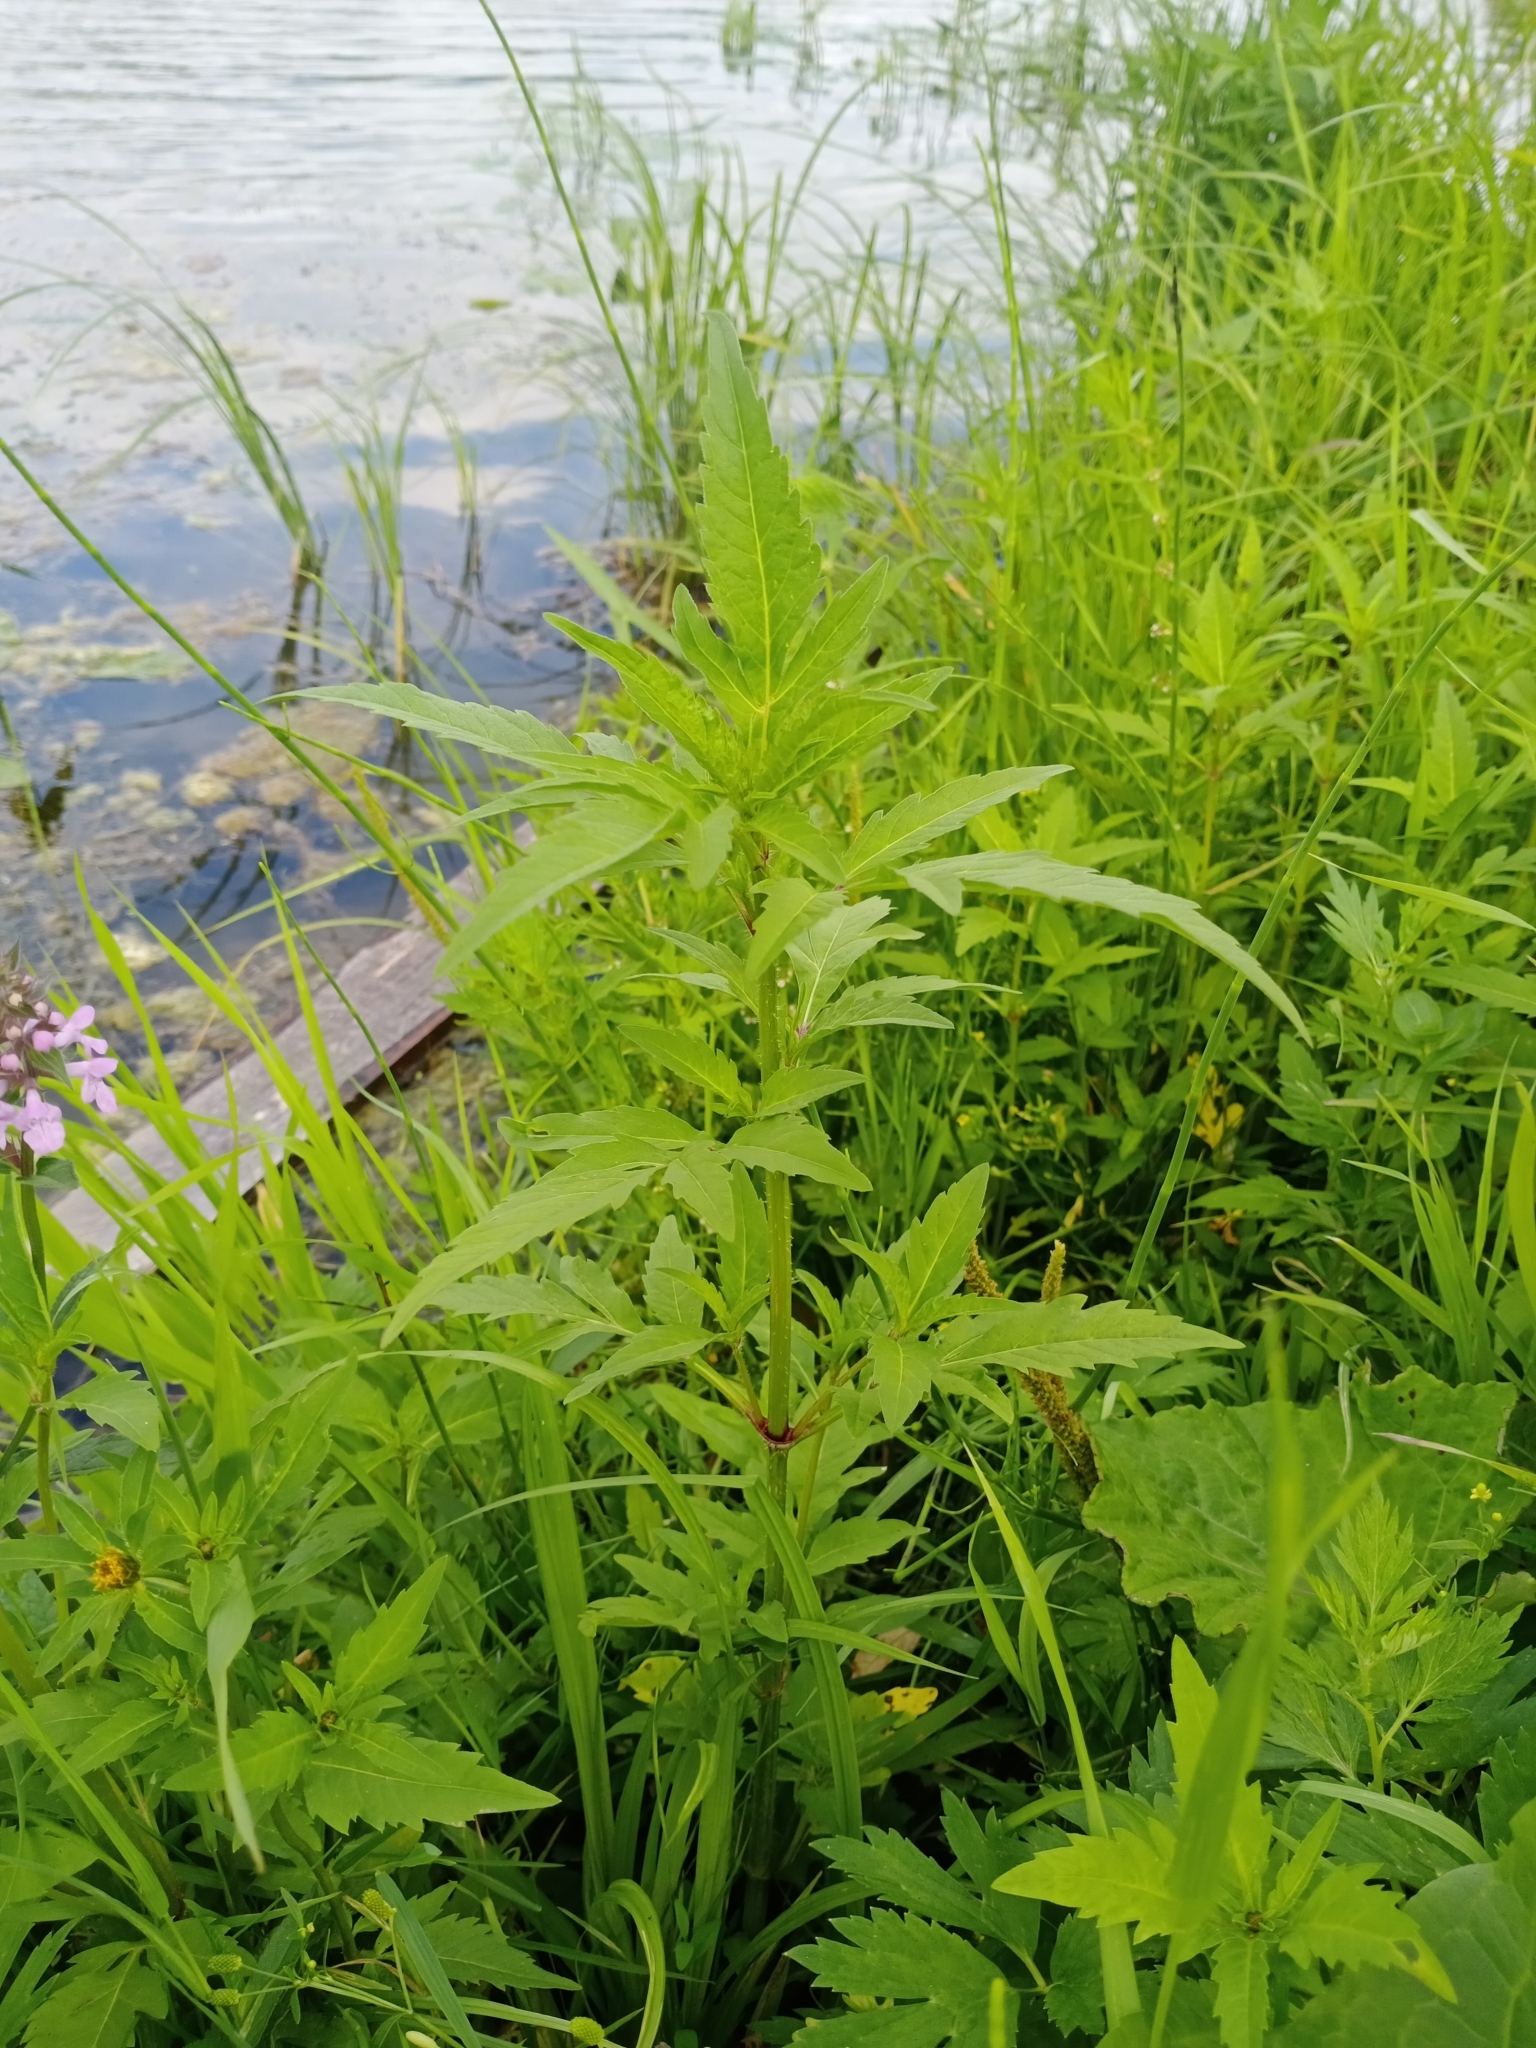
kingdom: Plantae
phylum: Tracheophyta
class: Magnoliopsida
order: Asterales
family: Asteraceae
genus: Bidens
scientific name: Bidens tripartita
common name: Trifid bur-marigold
